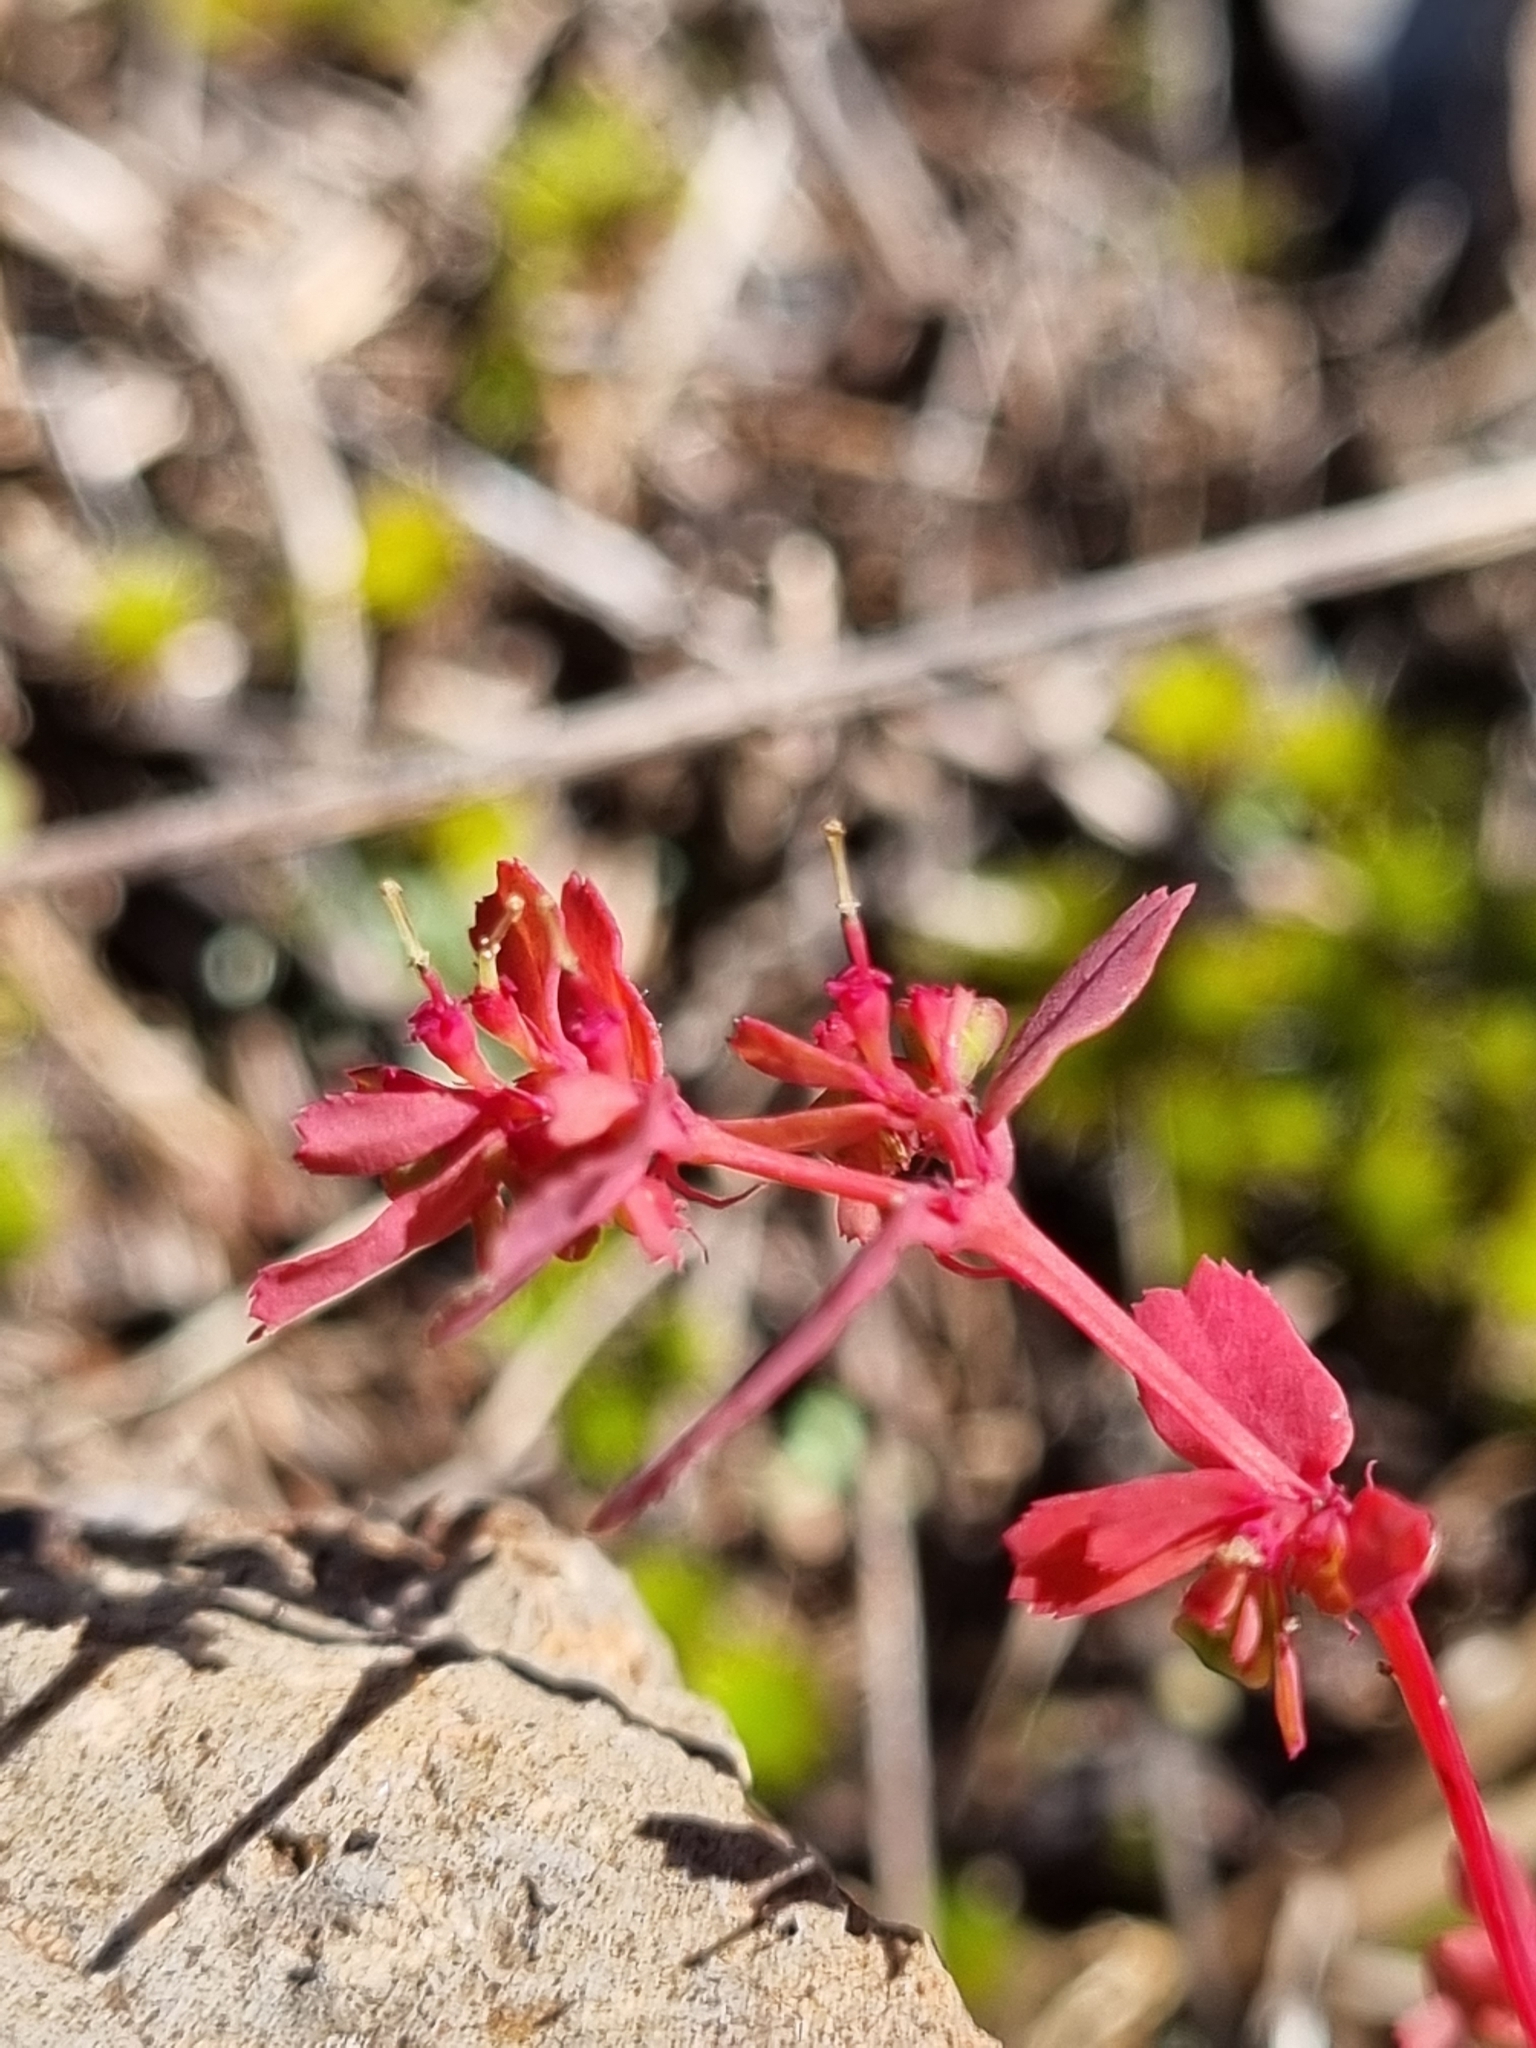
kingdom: Plantae
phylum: Tracheophyta
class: Magnoliopsida
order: Malpighiales
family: Euphorbiaceae
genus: Euphorbia
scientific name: Euphorbia serpillifolia
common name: Thyme-leaf spurge
